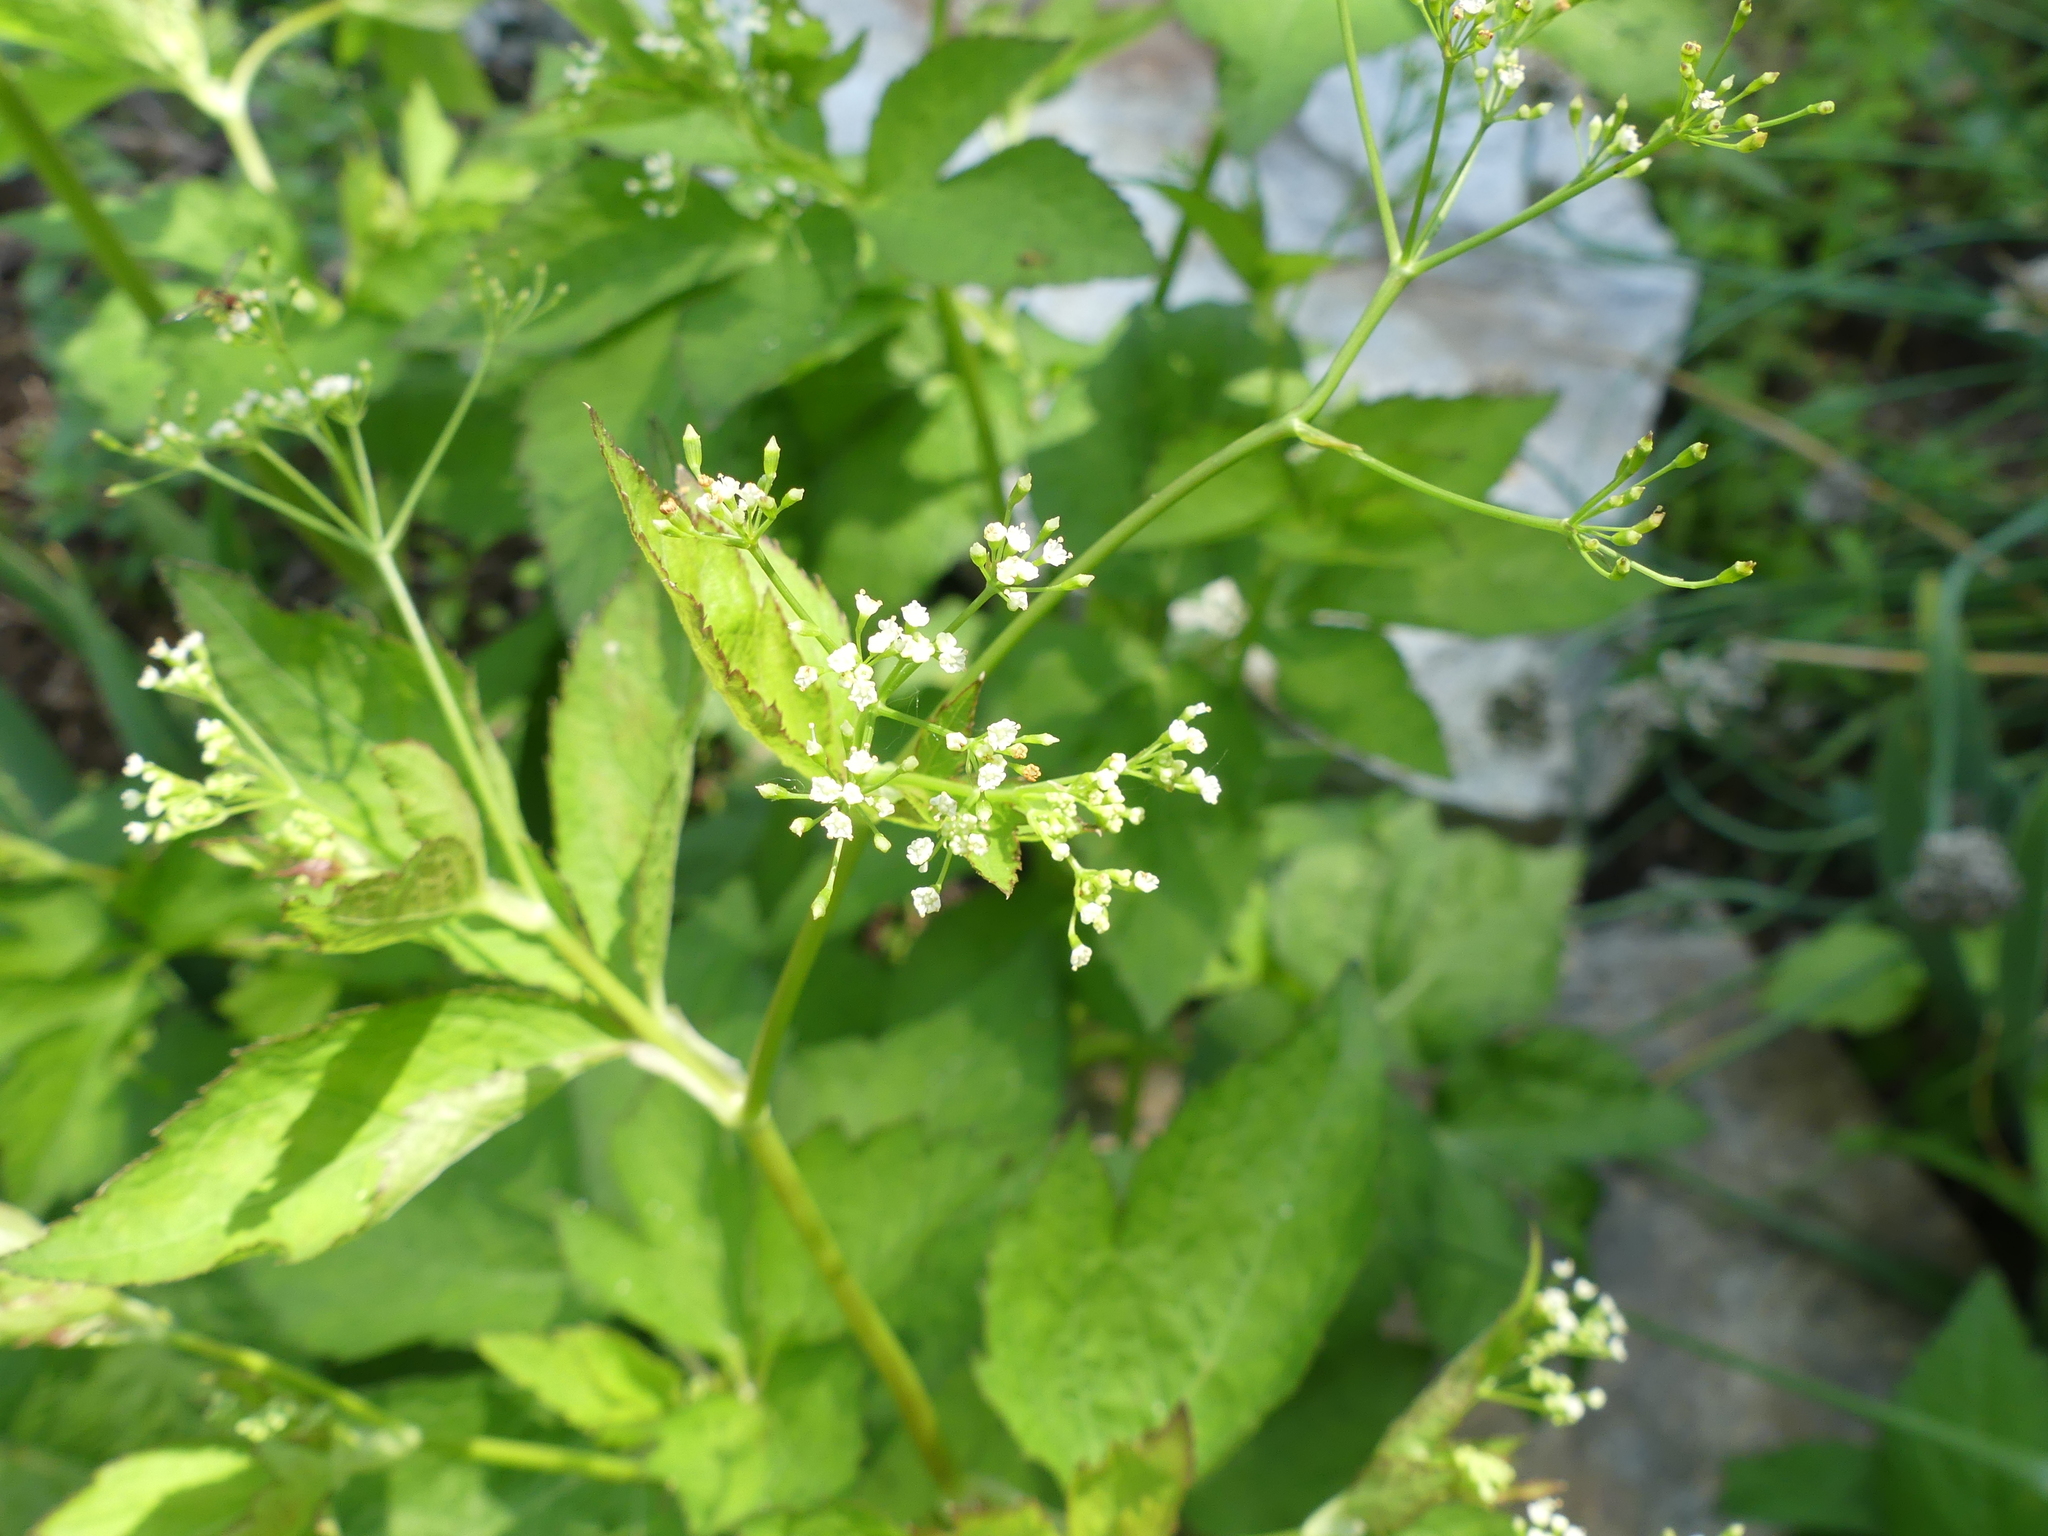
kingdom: Plantae
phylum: Tracheophyta
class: Magnoliopsida
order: Apiales
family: Apiaceae
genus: Cryptotaenia
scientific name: Cryptotaenia canadensis
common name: Honewort
